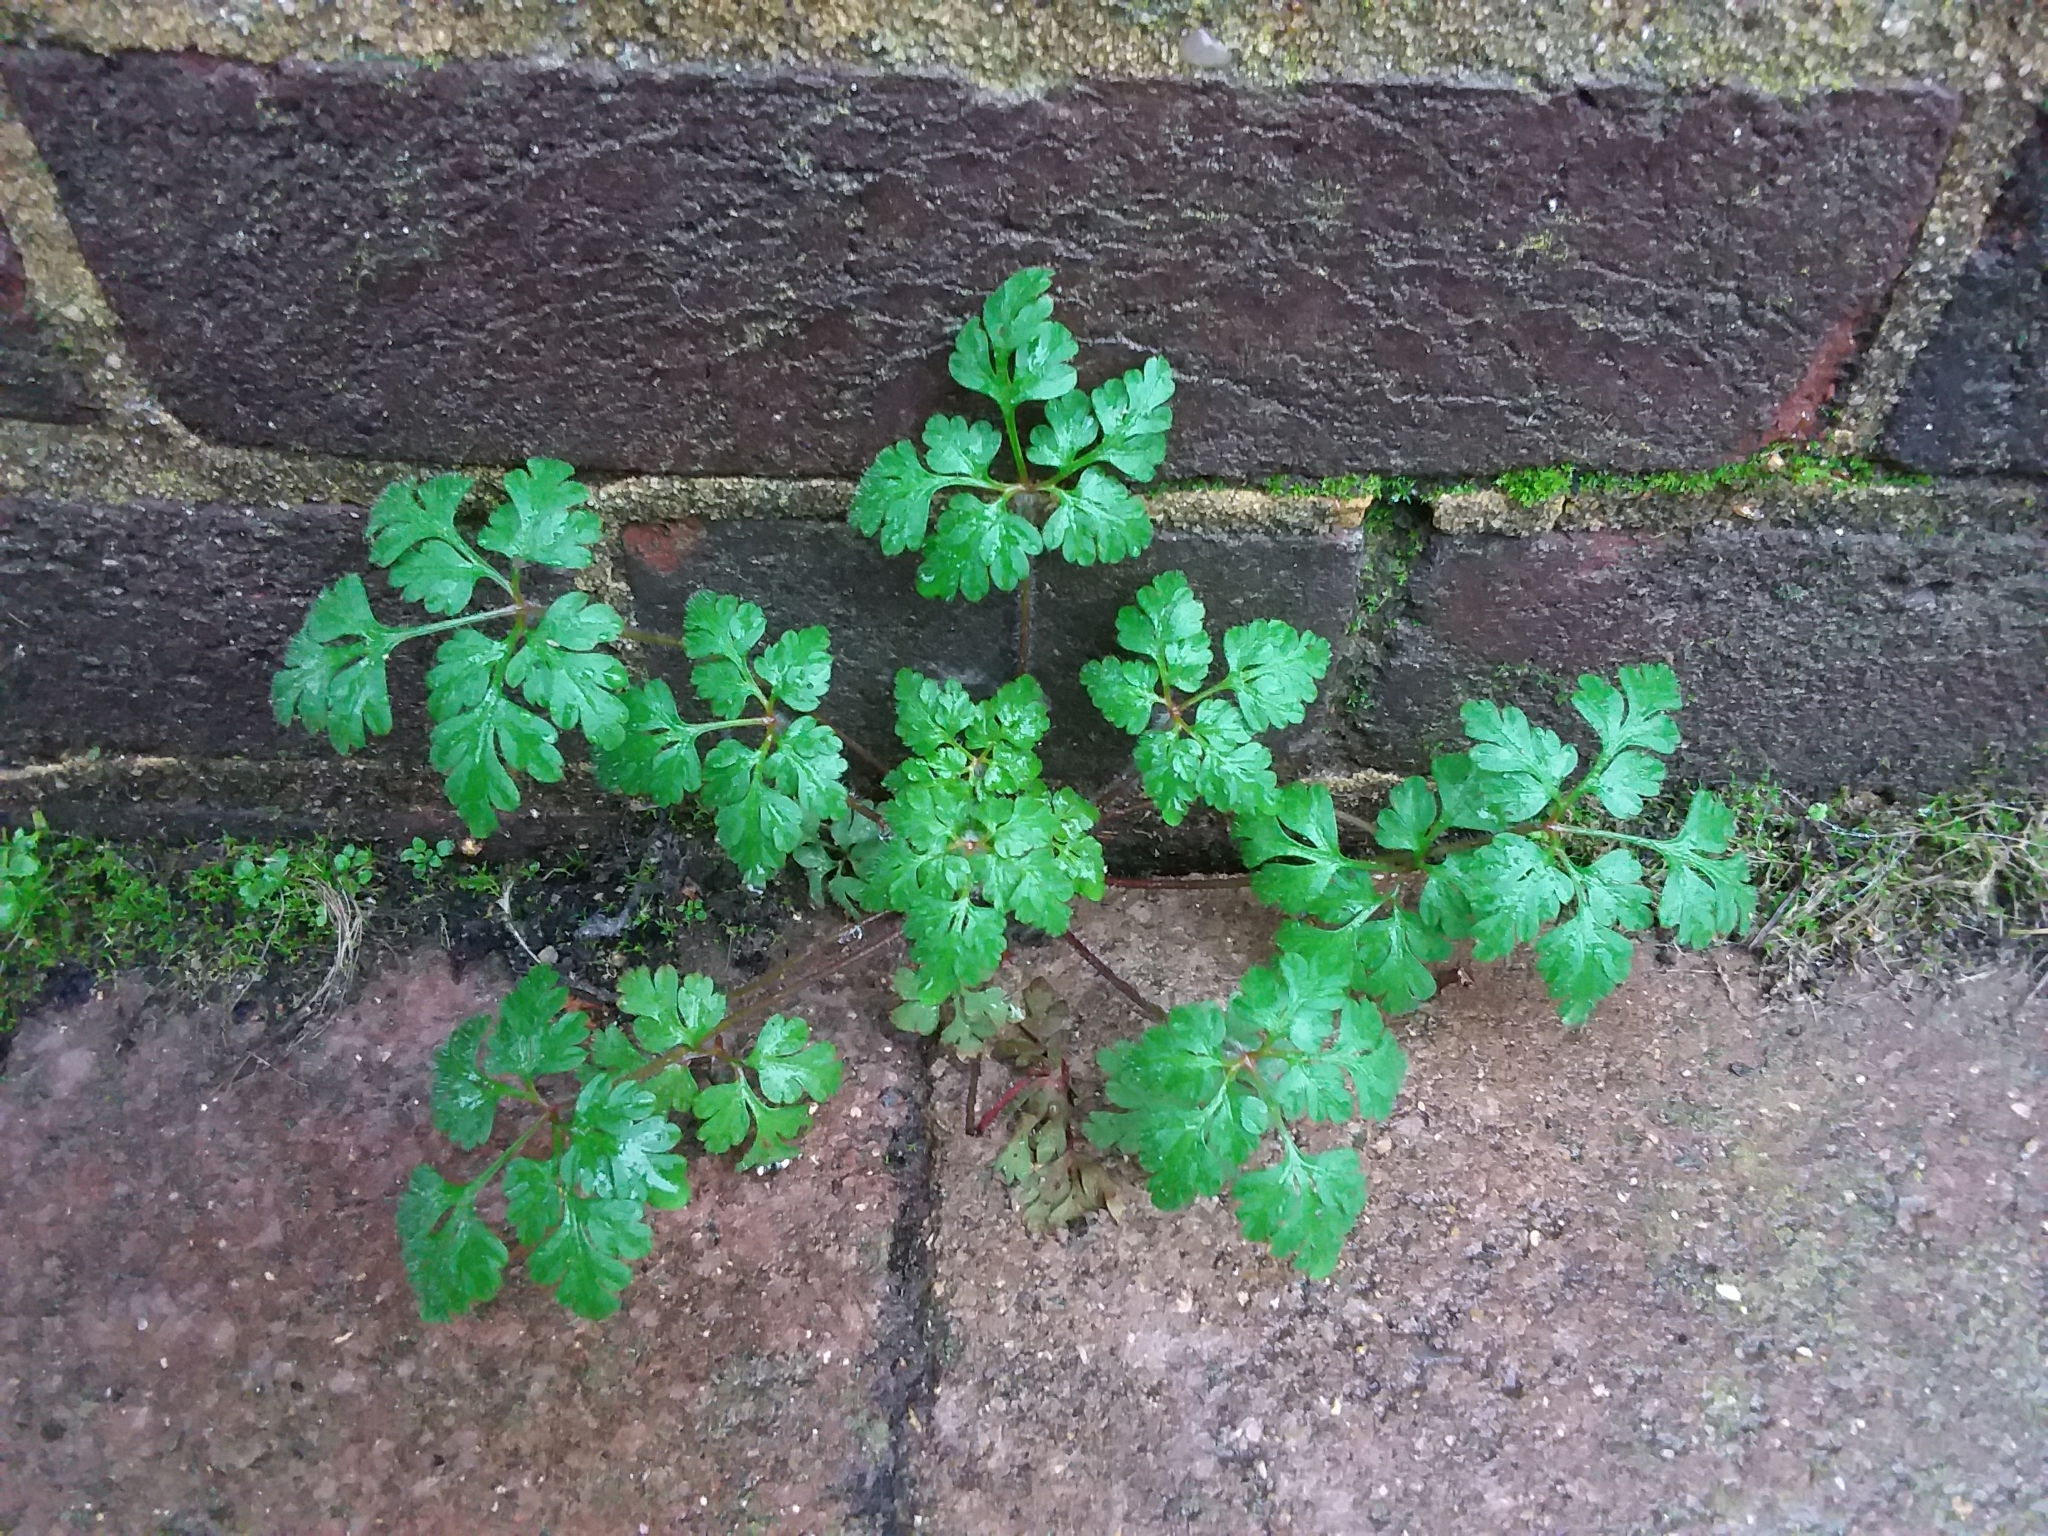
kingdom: Plantae
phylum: Tracheophyta
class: Magnoliopsida
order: Geraniales
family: Geraniaceae
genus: Geranium
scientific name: Geranium robertianum
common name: Herb-robert
